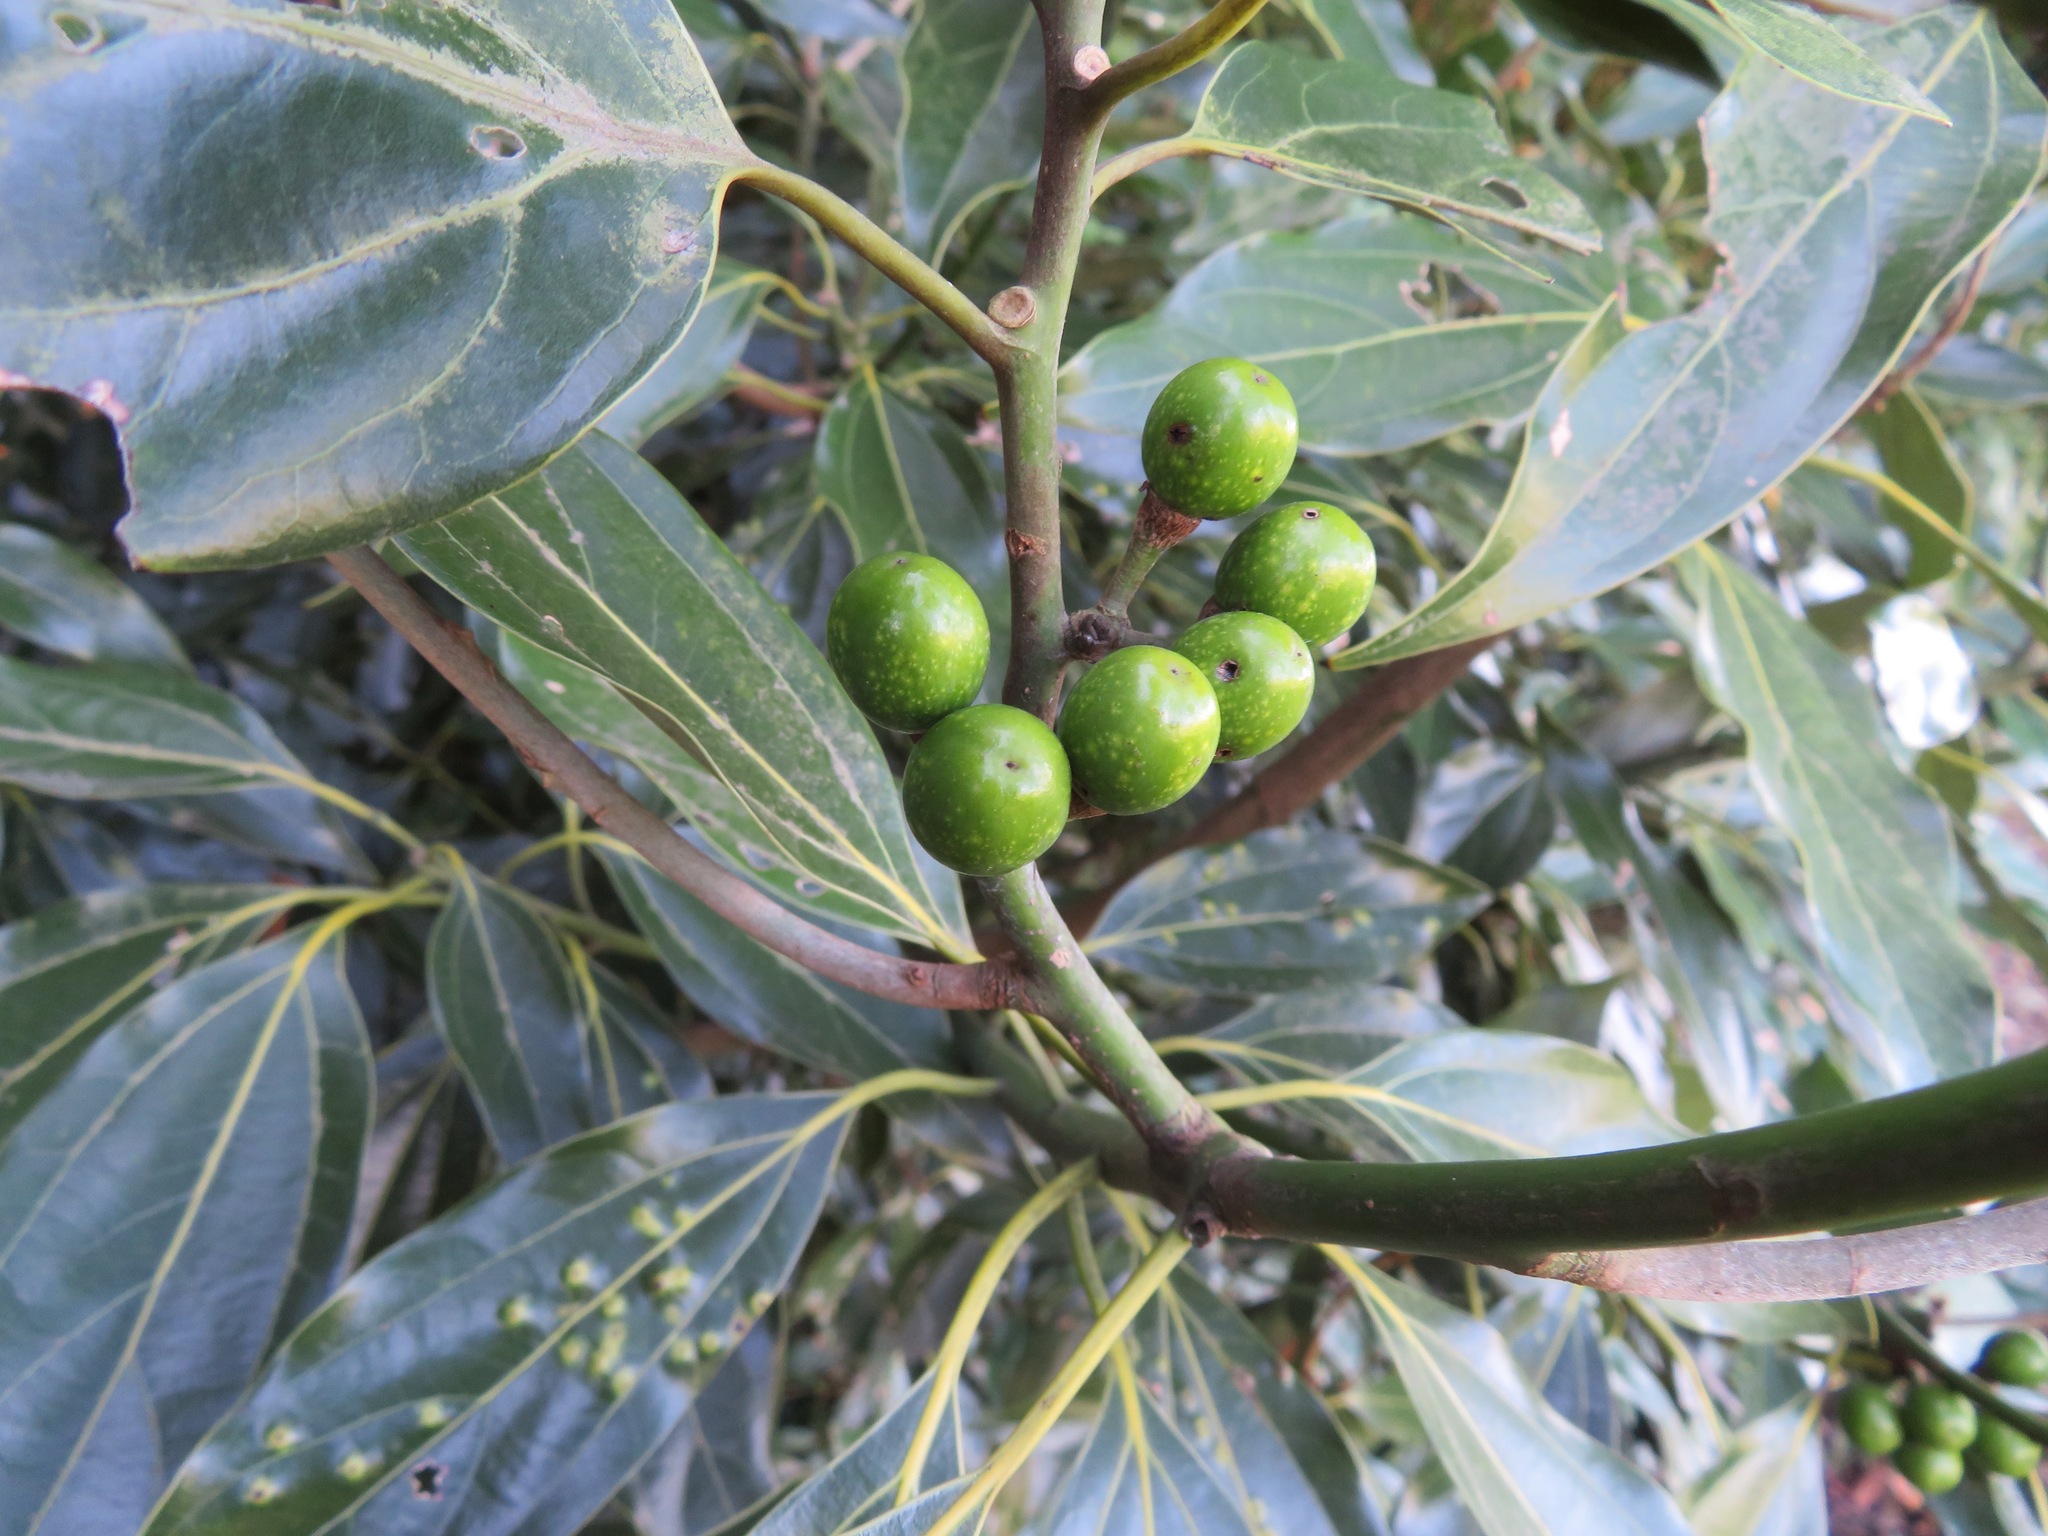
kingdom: Plantae
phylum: Tracheophyta
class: Magnoliopsida
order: Laurales
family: Lauraceae
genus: Neolitsea
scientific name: Neolitsea sericea
